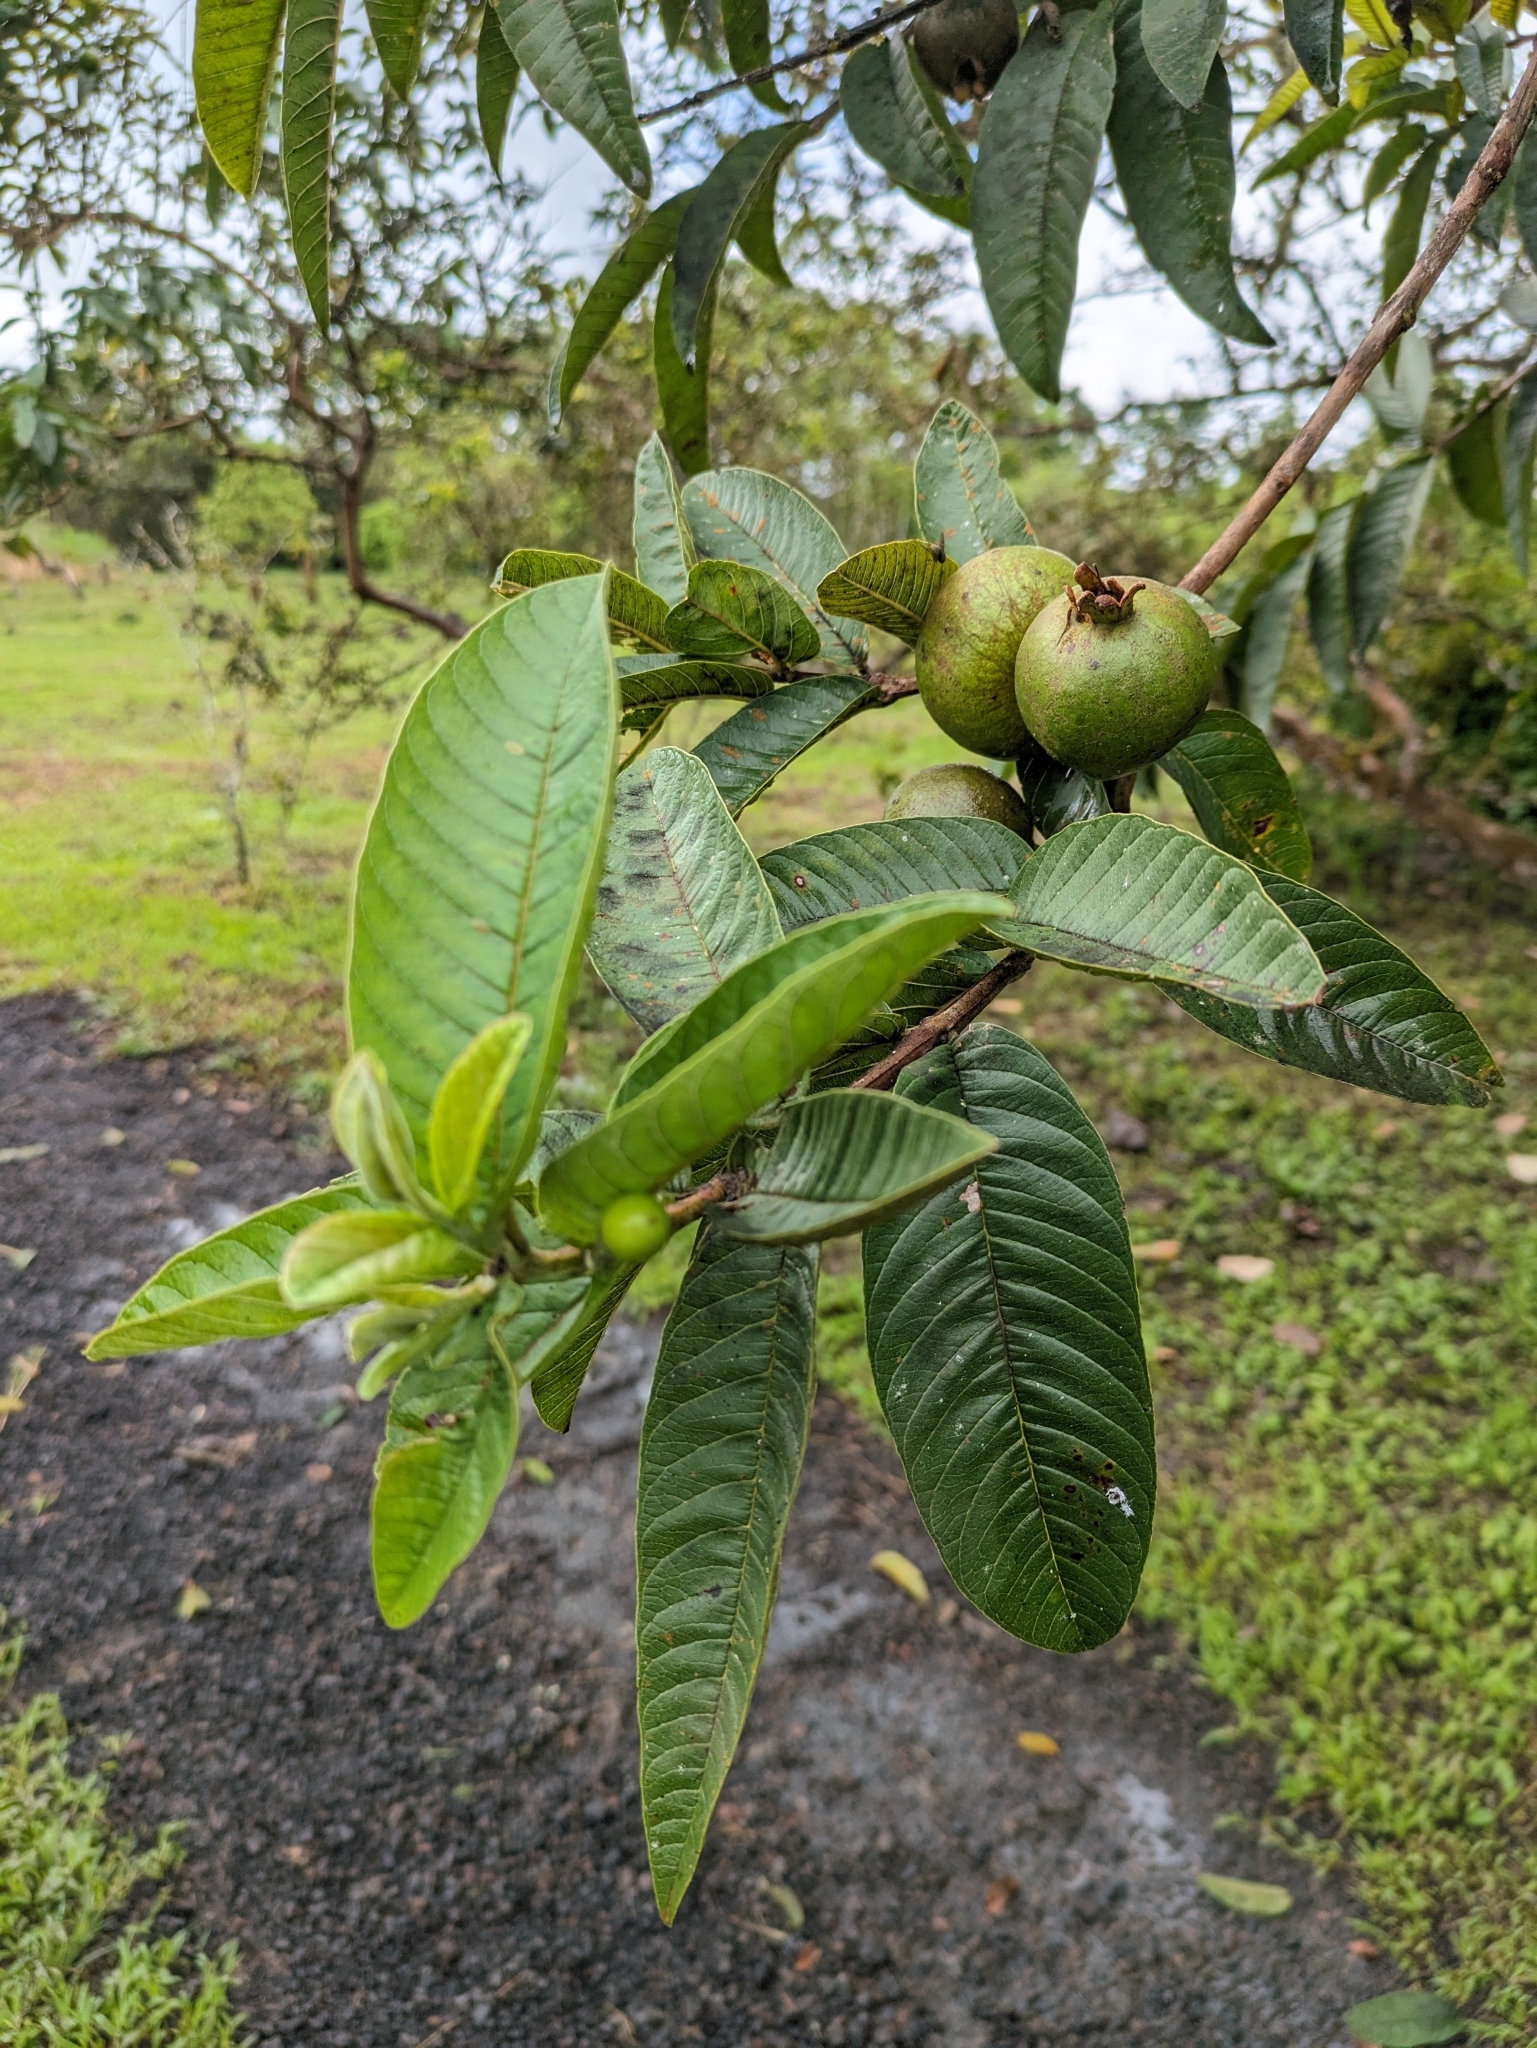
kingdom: Plantae
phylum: Tracheophyta
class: Magnoliopsida
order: Myrtales
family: Myrtaceae
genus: Psidium
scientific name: Psidium guajava
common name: Guava
